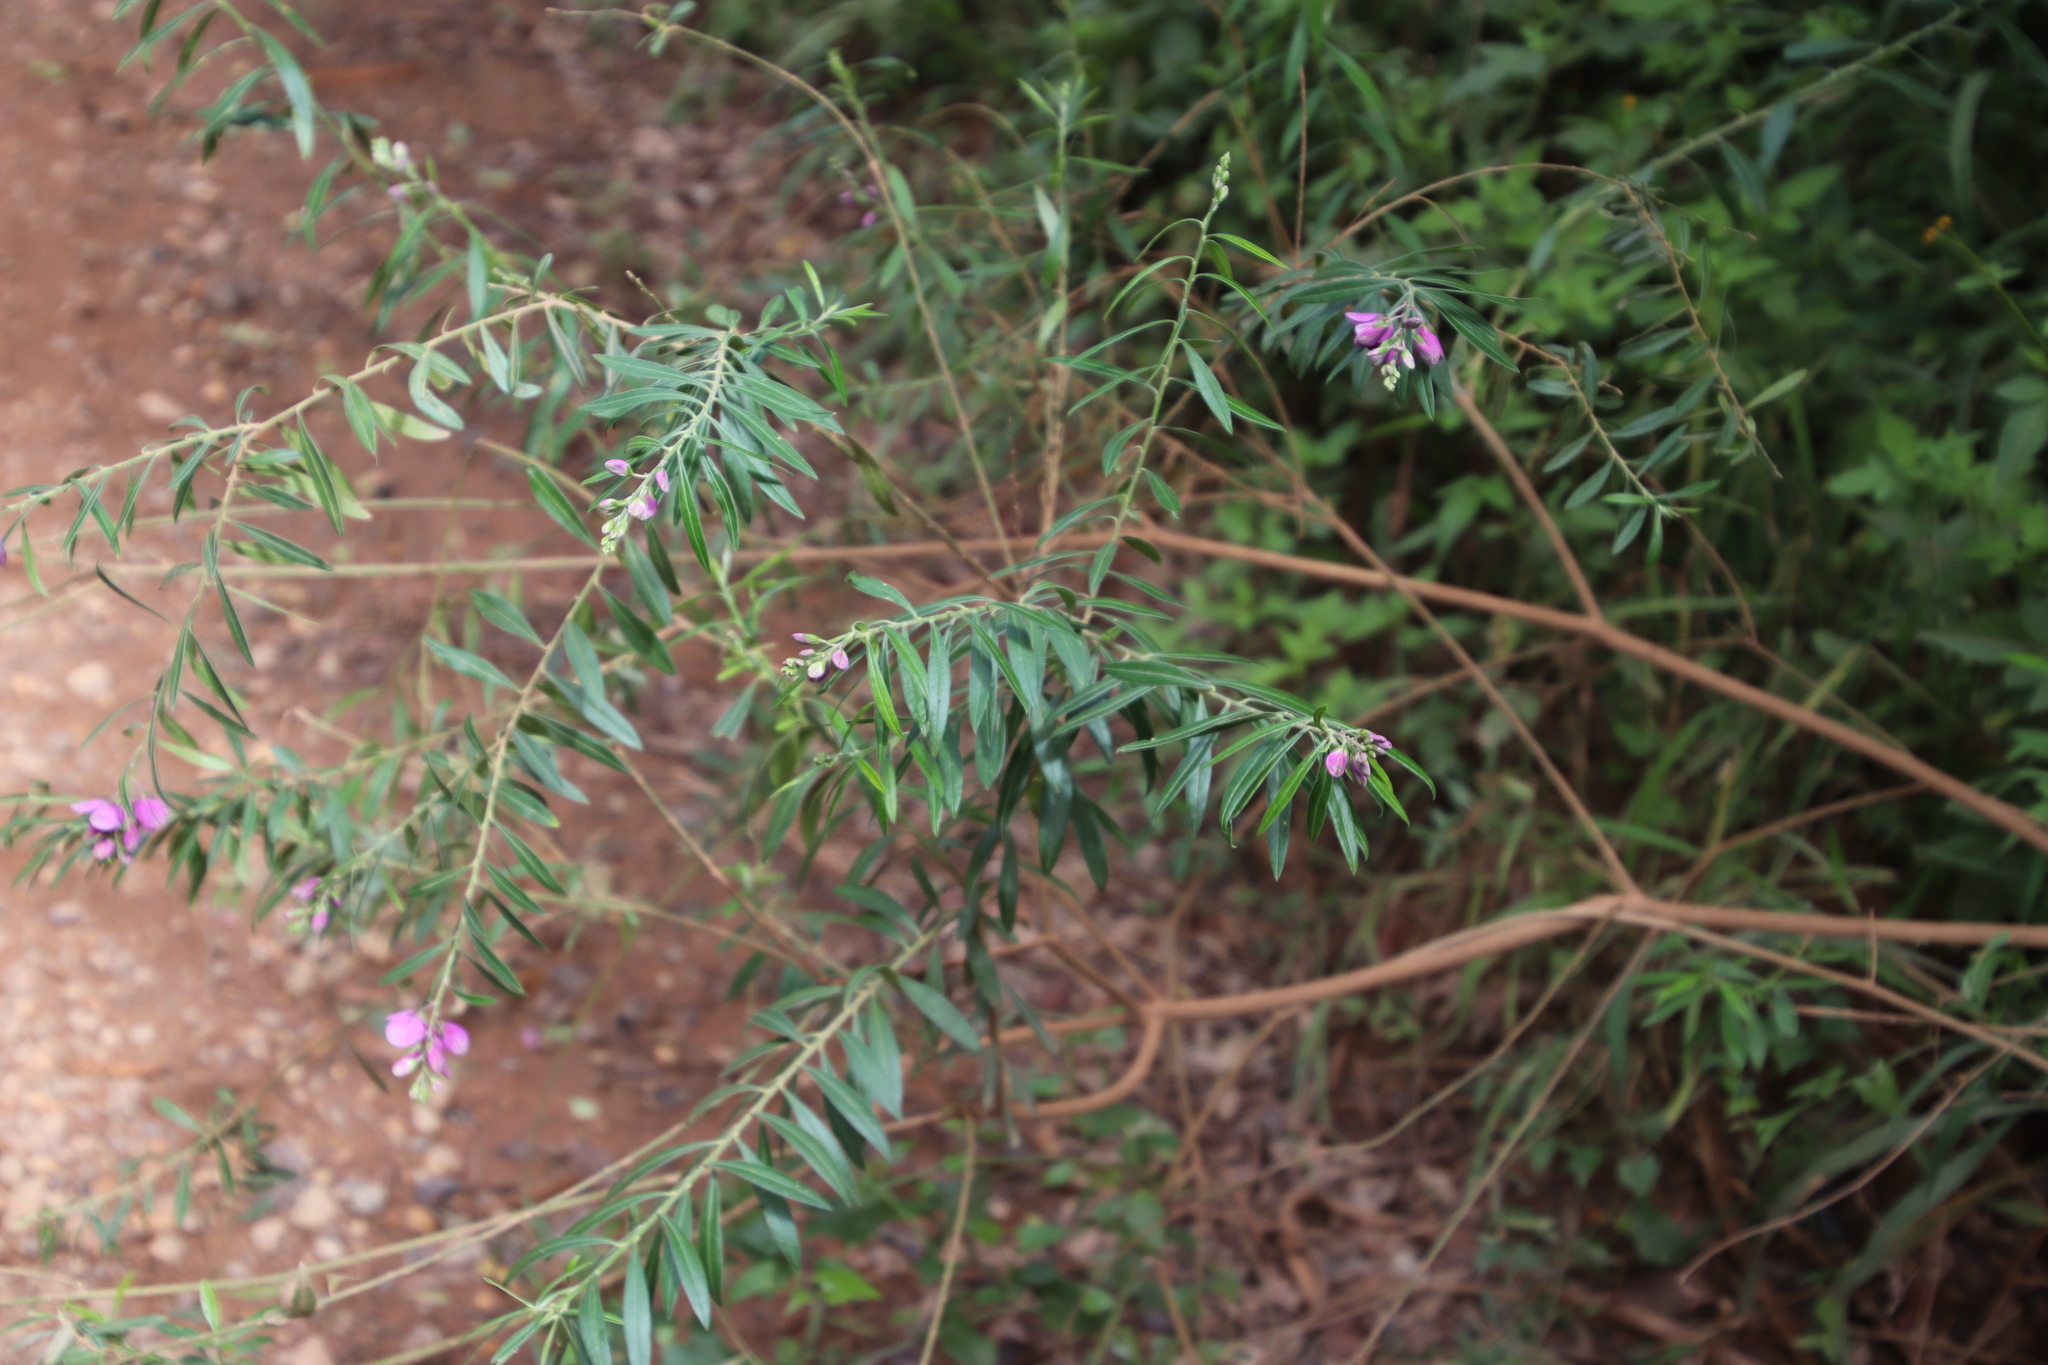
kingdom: Plantae
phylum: Tracheophyta
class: Magnoliopsida
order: Fabales
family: Polygalaceae
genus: Polygala
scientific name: Polygala virgata
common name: Milkwort
